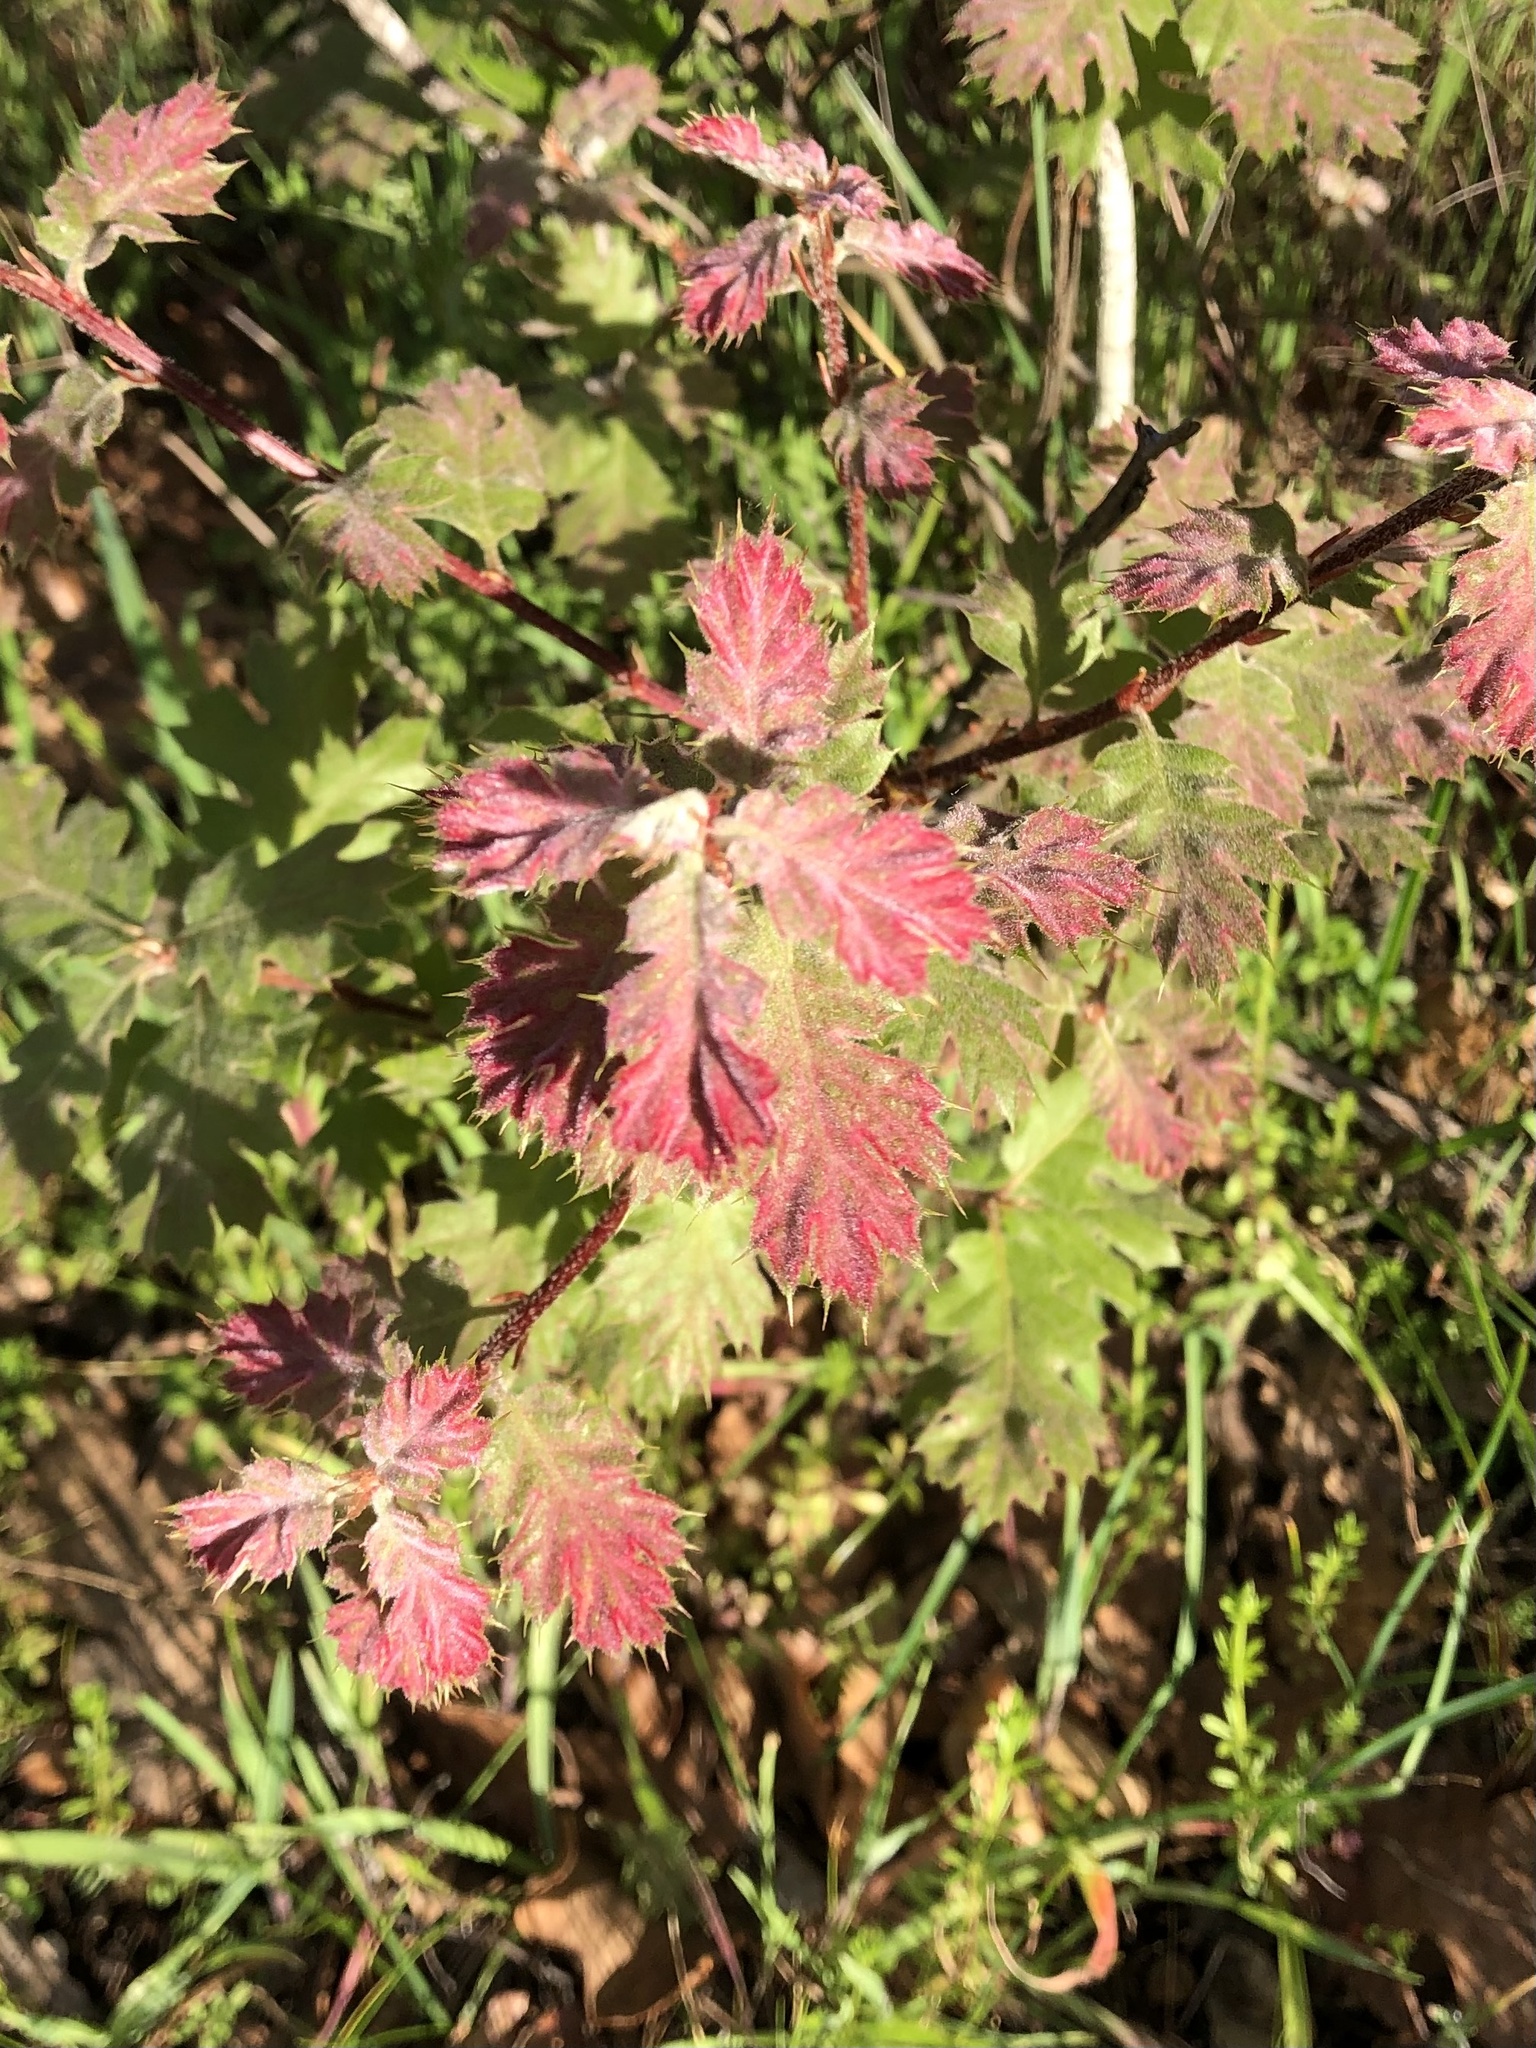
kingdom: Plantae
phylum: Tracheophyta
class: Magnoliopsida
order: Fagales
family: Fagaceae
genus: Quercus
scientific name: Quercus kelloggii
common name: California black oak
